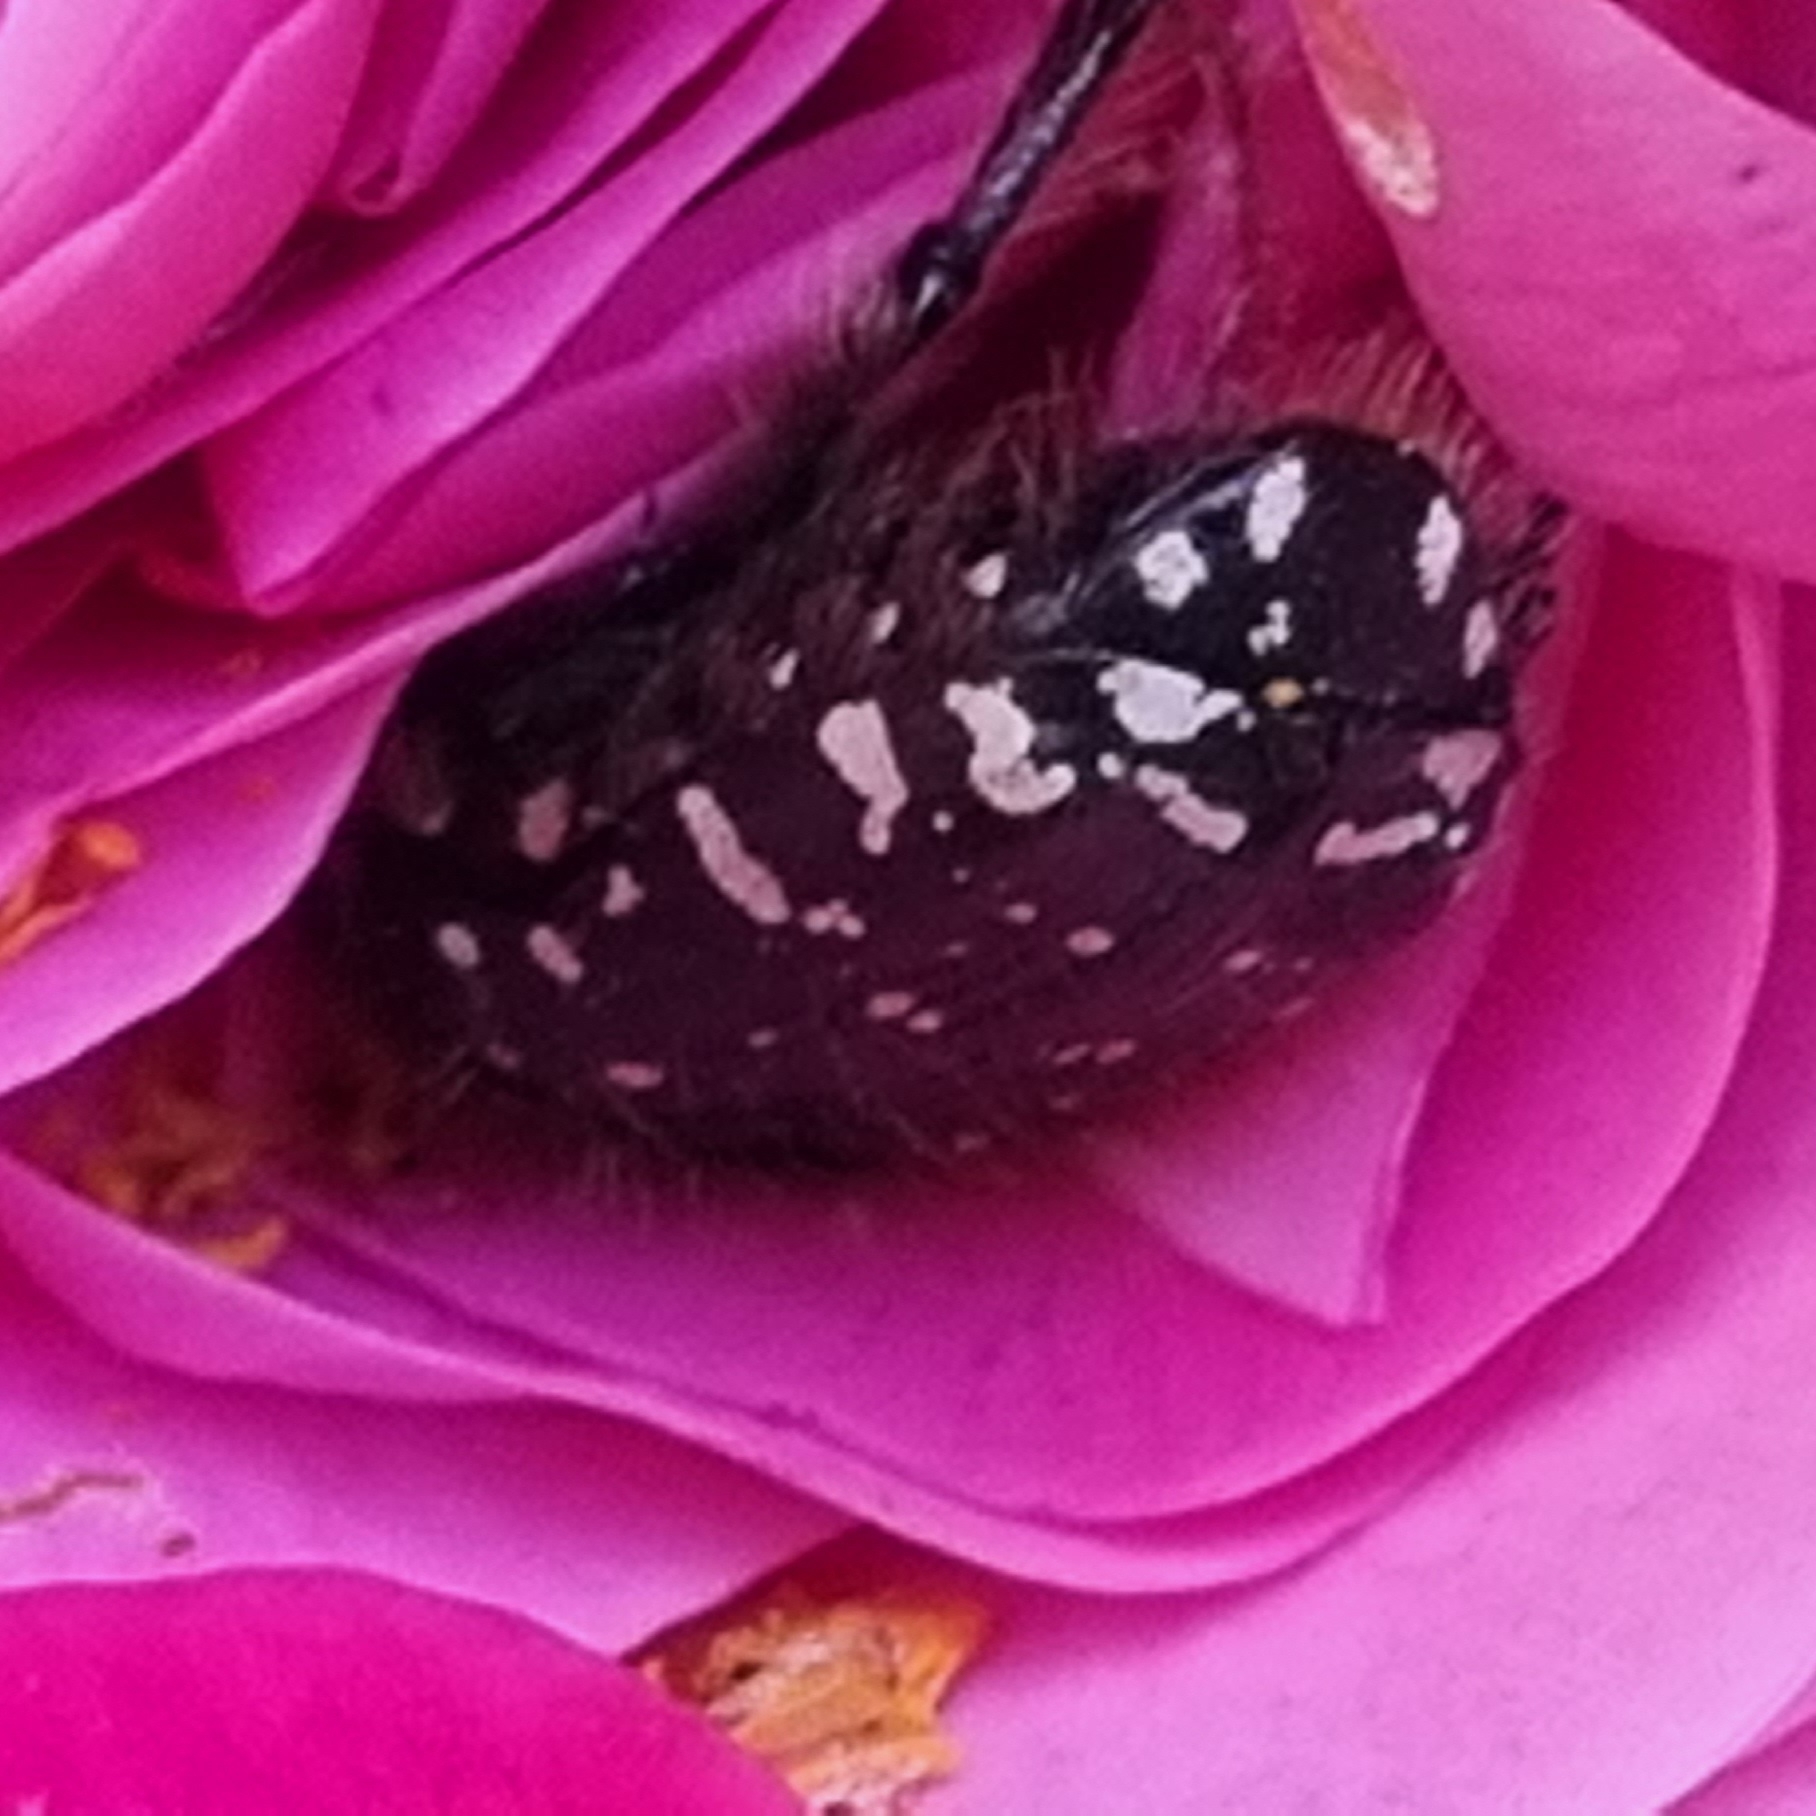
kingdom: Animalia
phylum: Arthropoda
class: Insecta
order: Coleoptera
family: Scarabaeidae
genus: Oxythyrea
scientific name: Oxythyrea funesta
